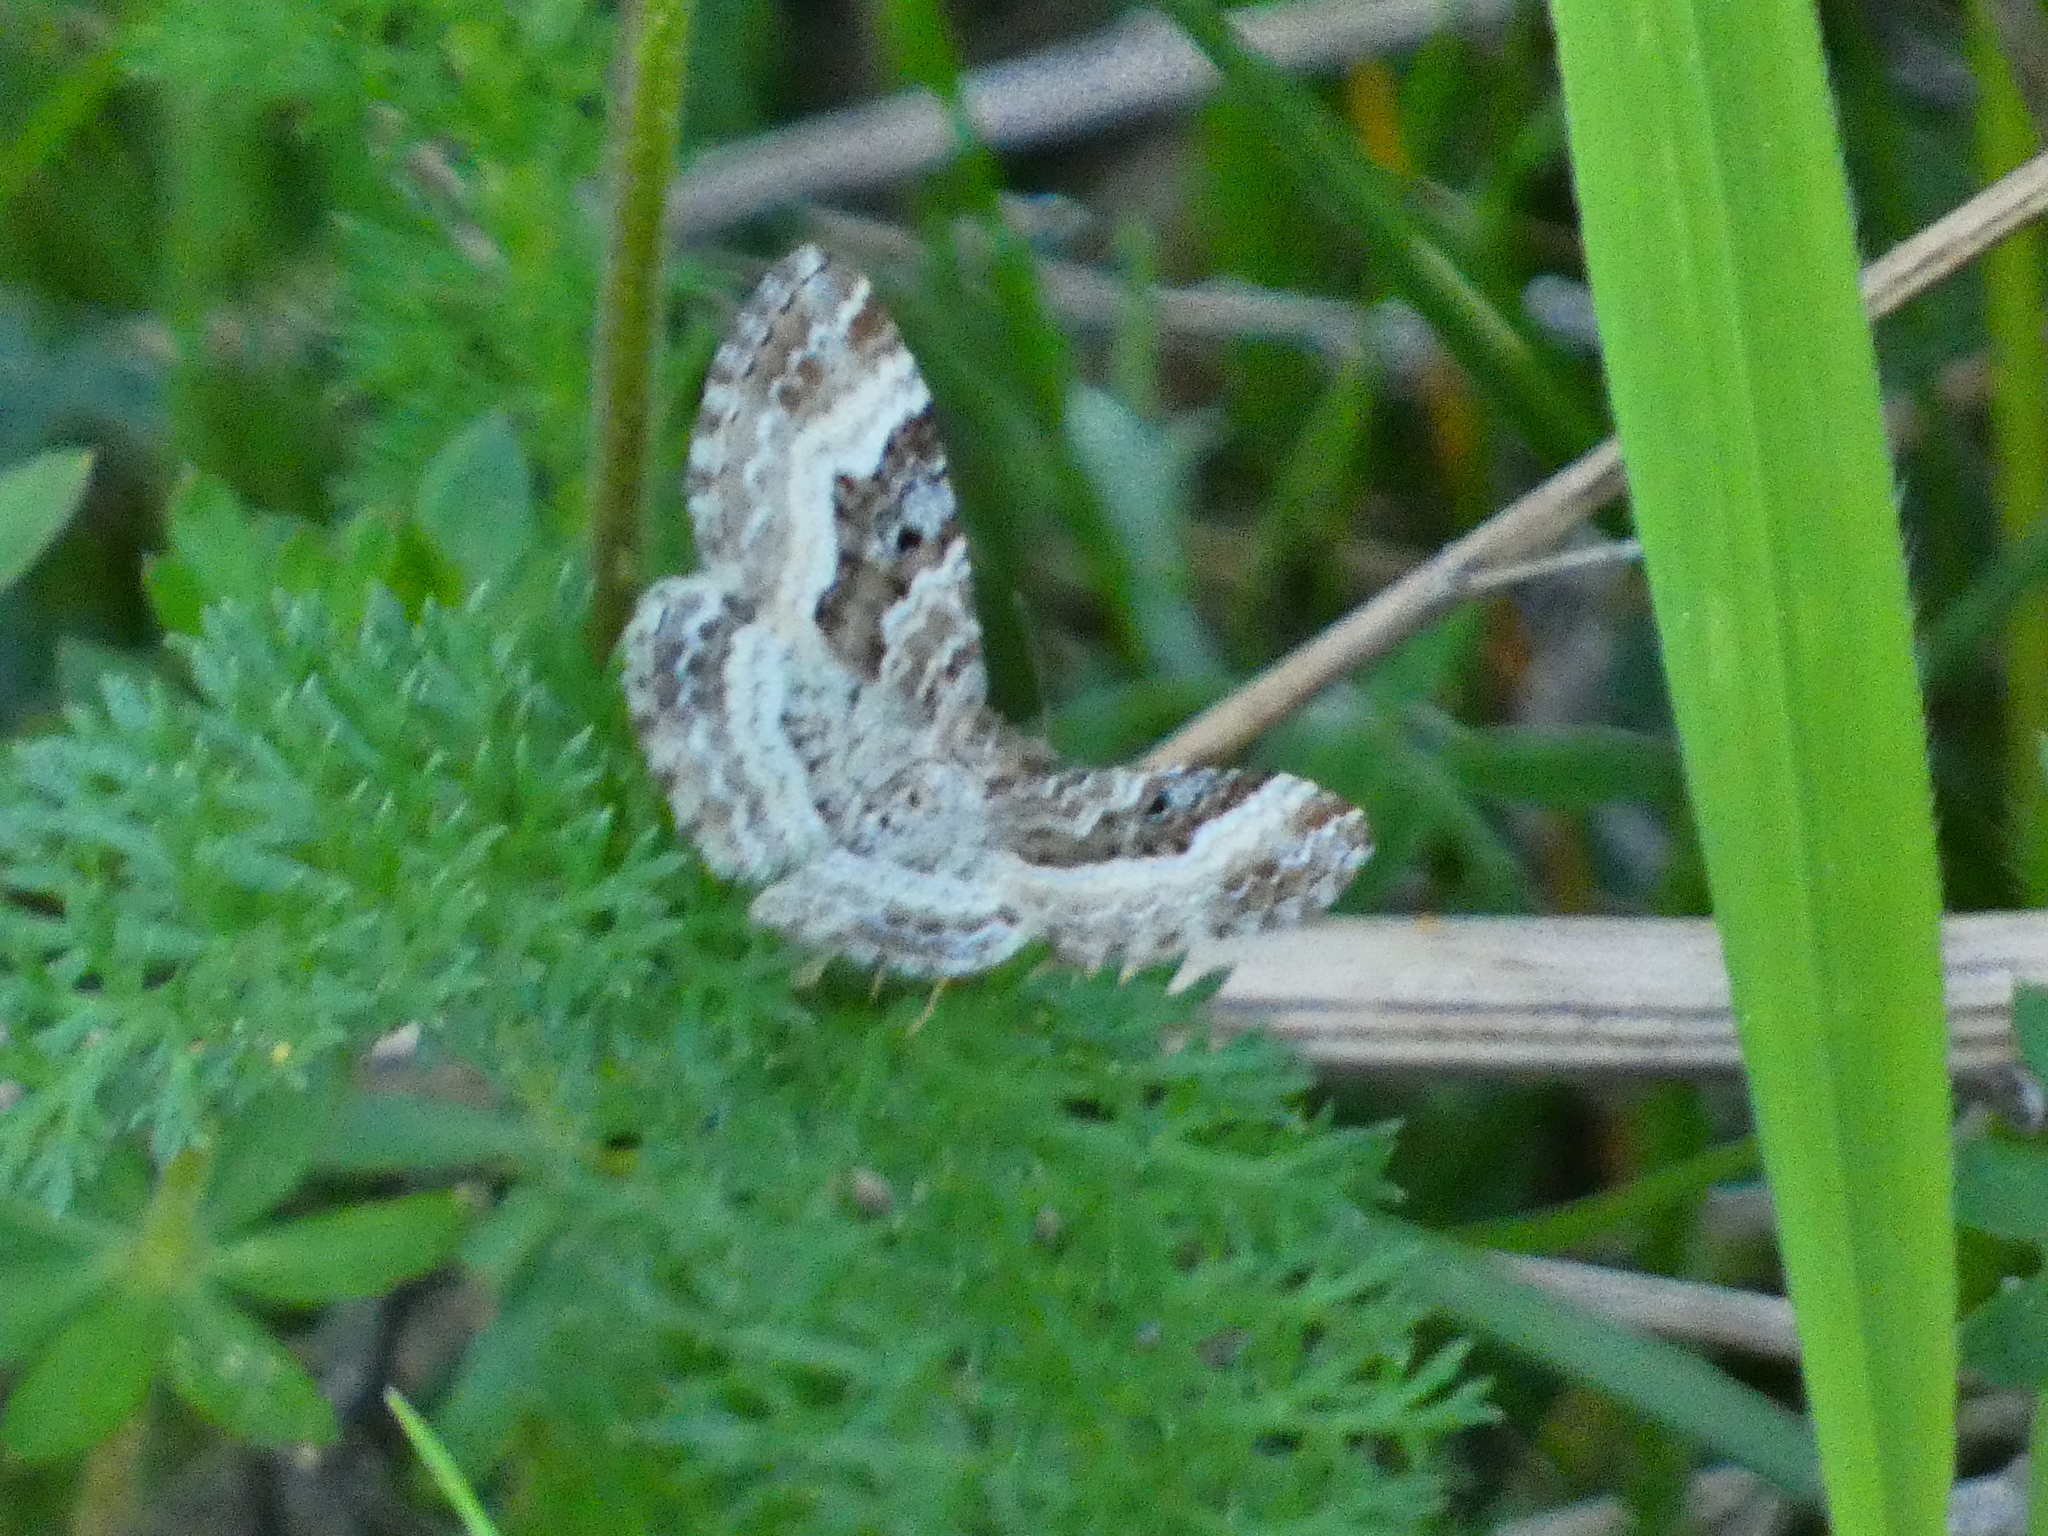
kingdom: Animalia
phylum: Arthropoda
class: Insecta
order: Lepidoptera
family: Geometridae
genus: Epirrhoe
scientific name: Epirrhoe alternata
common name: Common carpet
